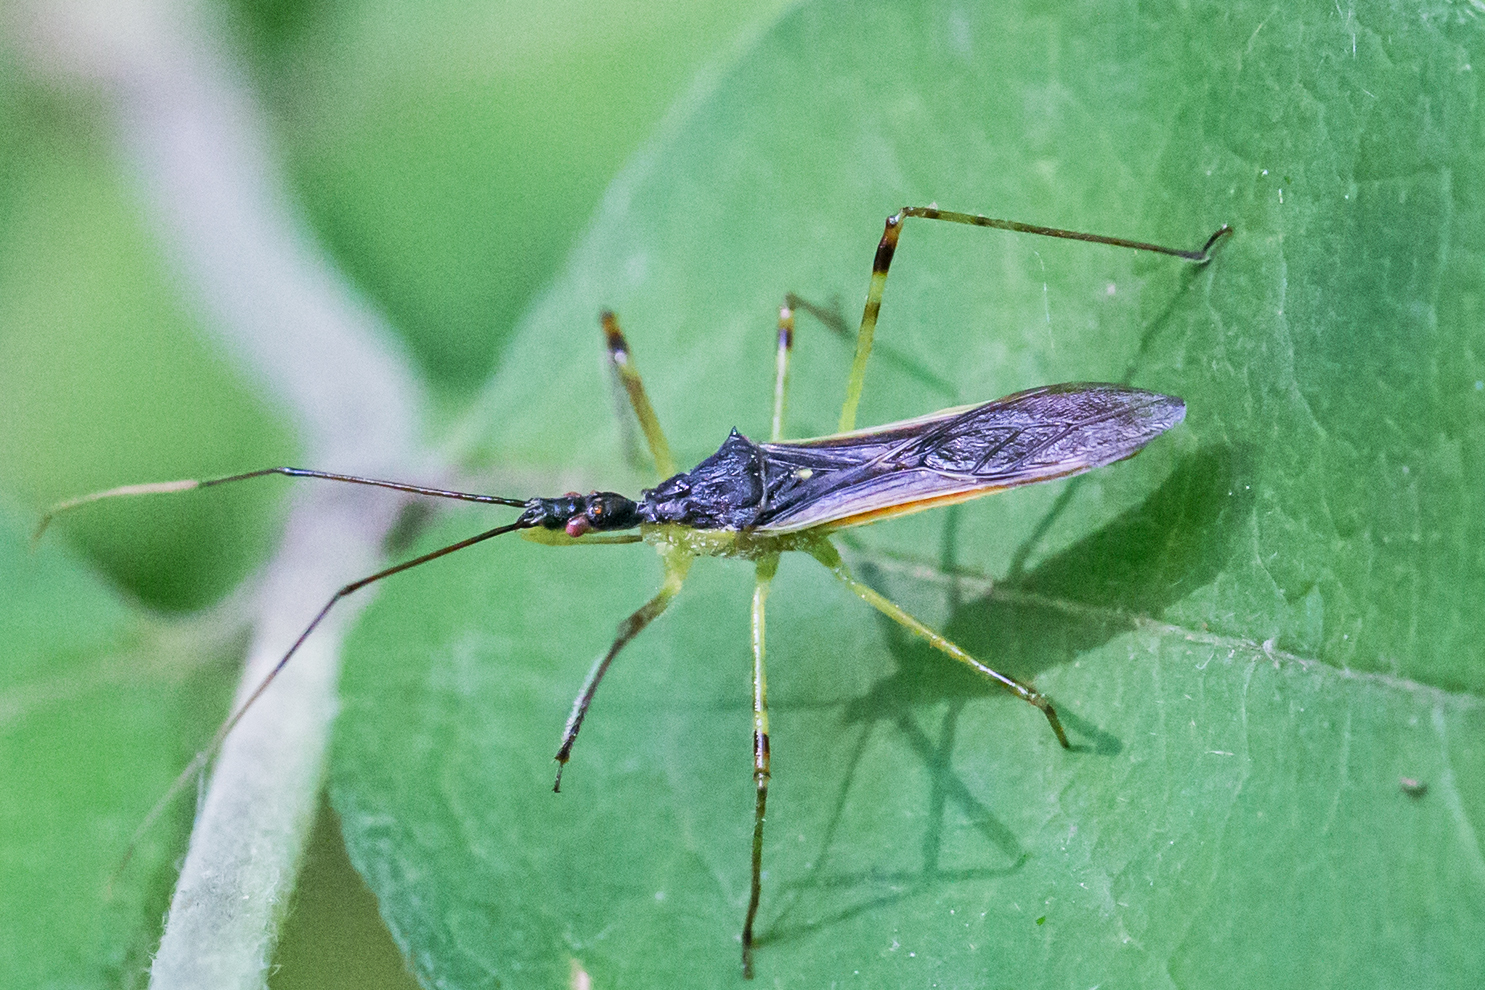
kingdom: Animalia
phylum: Arthropoda
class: Insecta
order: Hemiptera
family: Reduviidae
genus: Zelus
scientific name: Zelus luridus
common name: Pale green assassin bug
